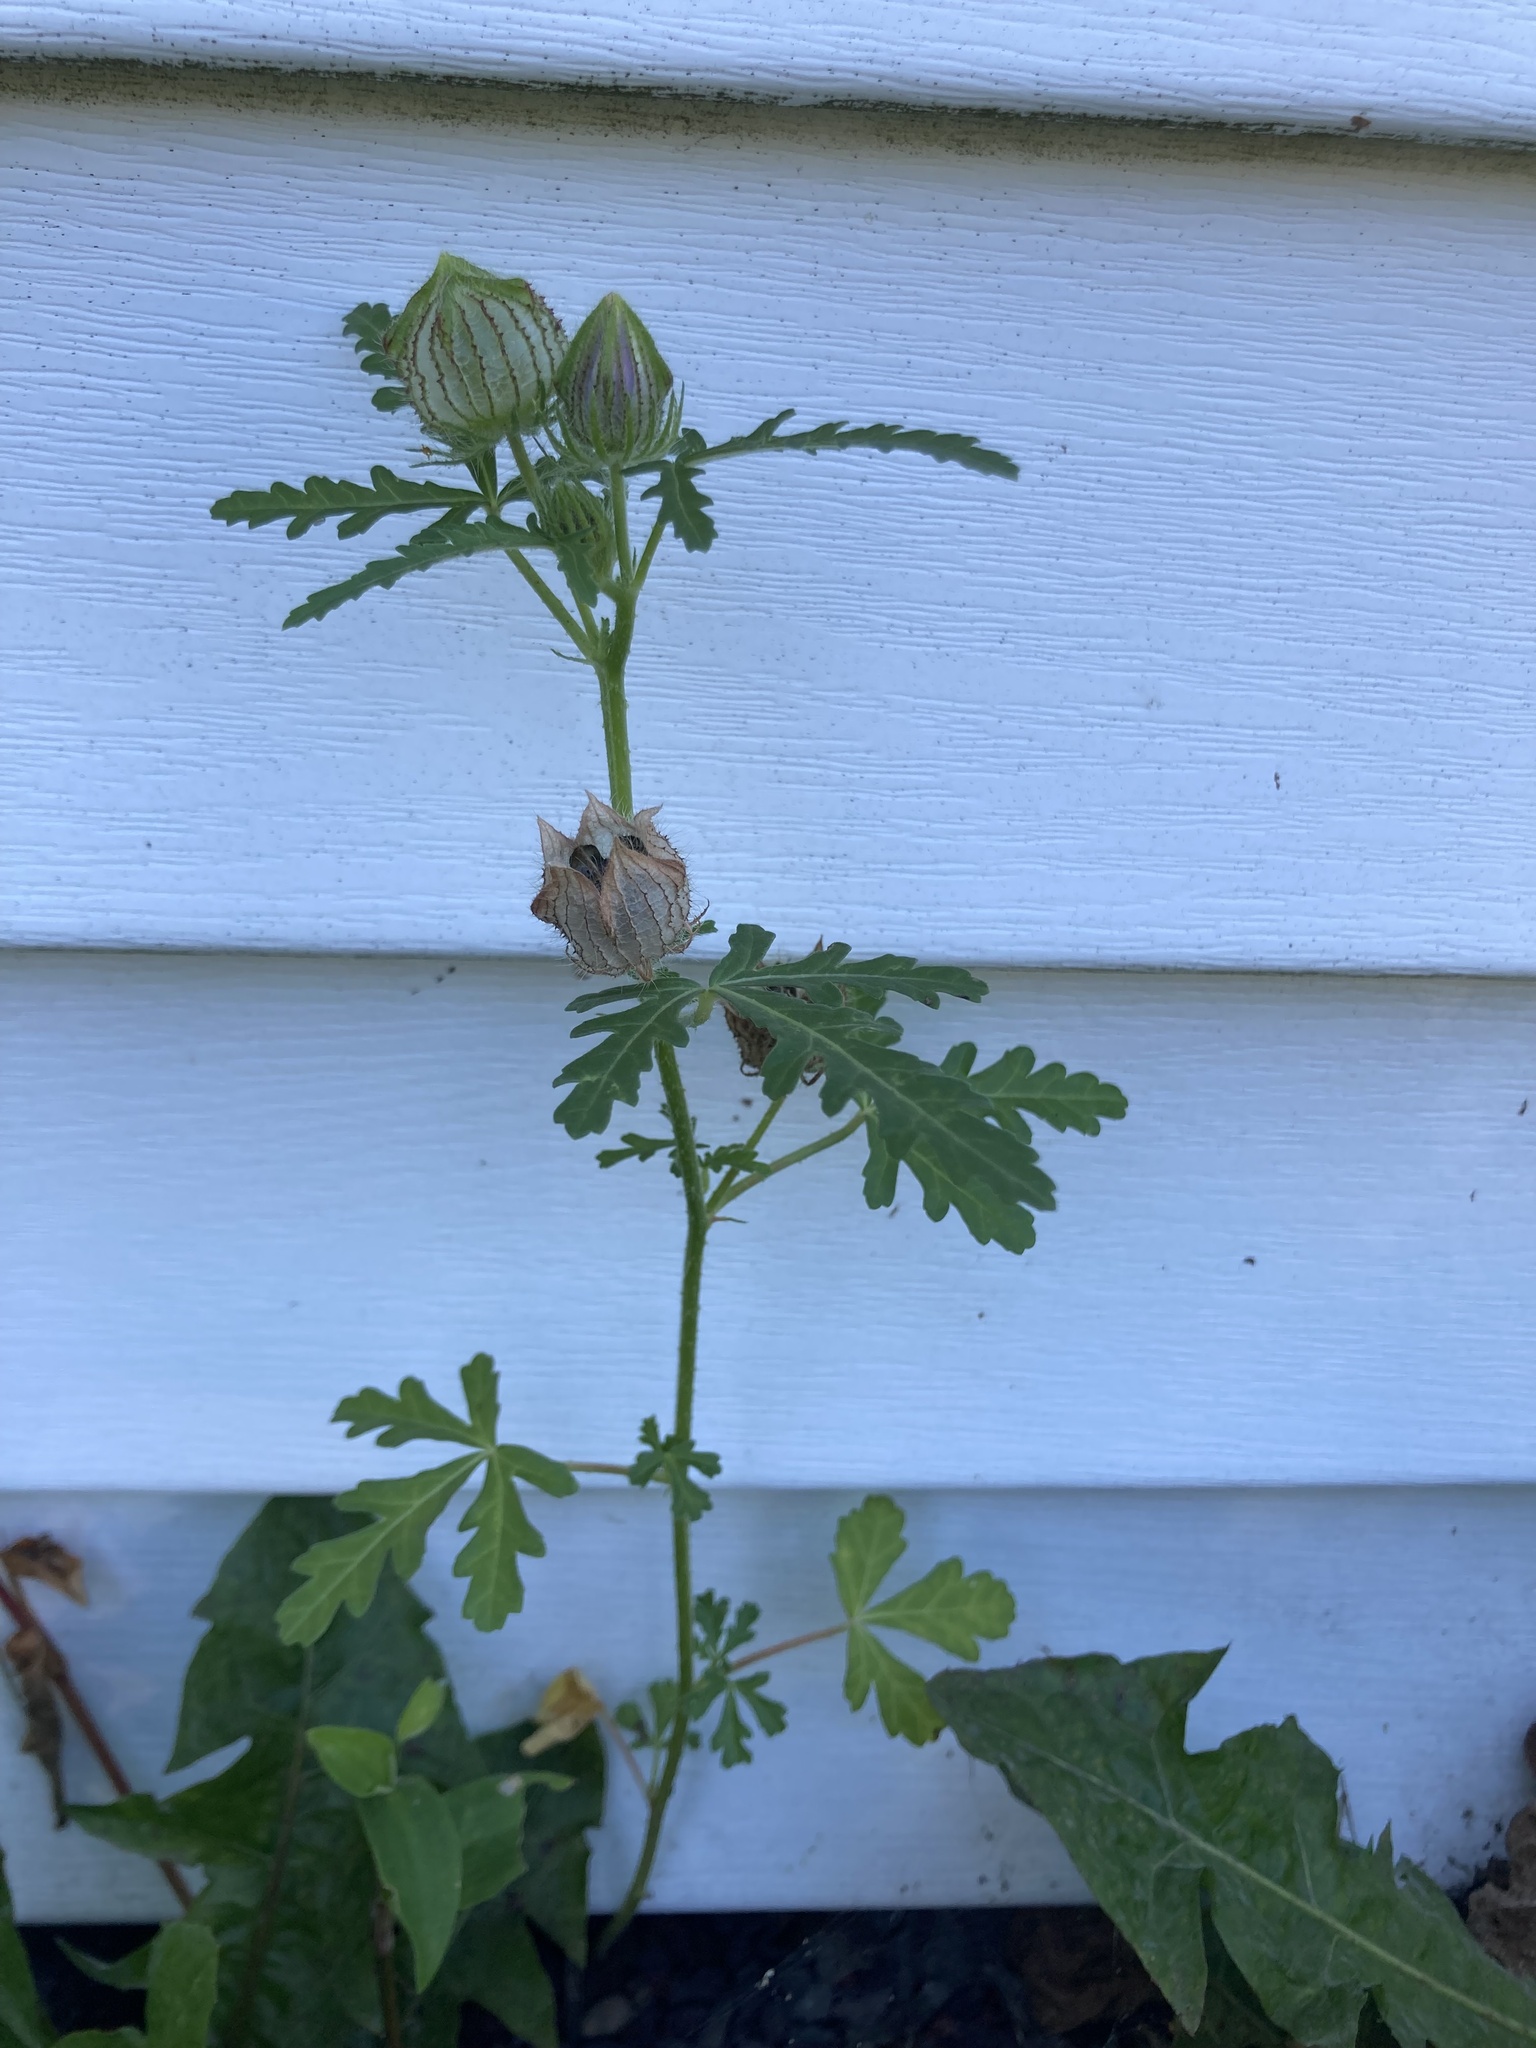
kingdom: Plantae
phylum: Tracheophyta
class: Magnoliopsida
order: Malvales
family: Malvaceae
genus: Hibiscus
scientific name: Hibiscus trionum
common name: Bladder ketmia
